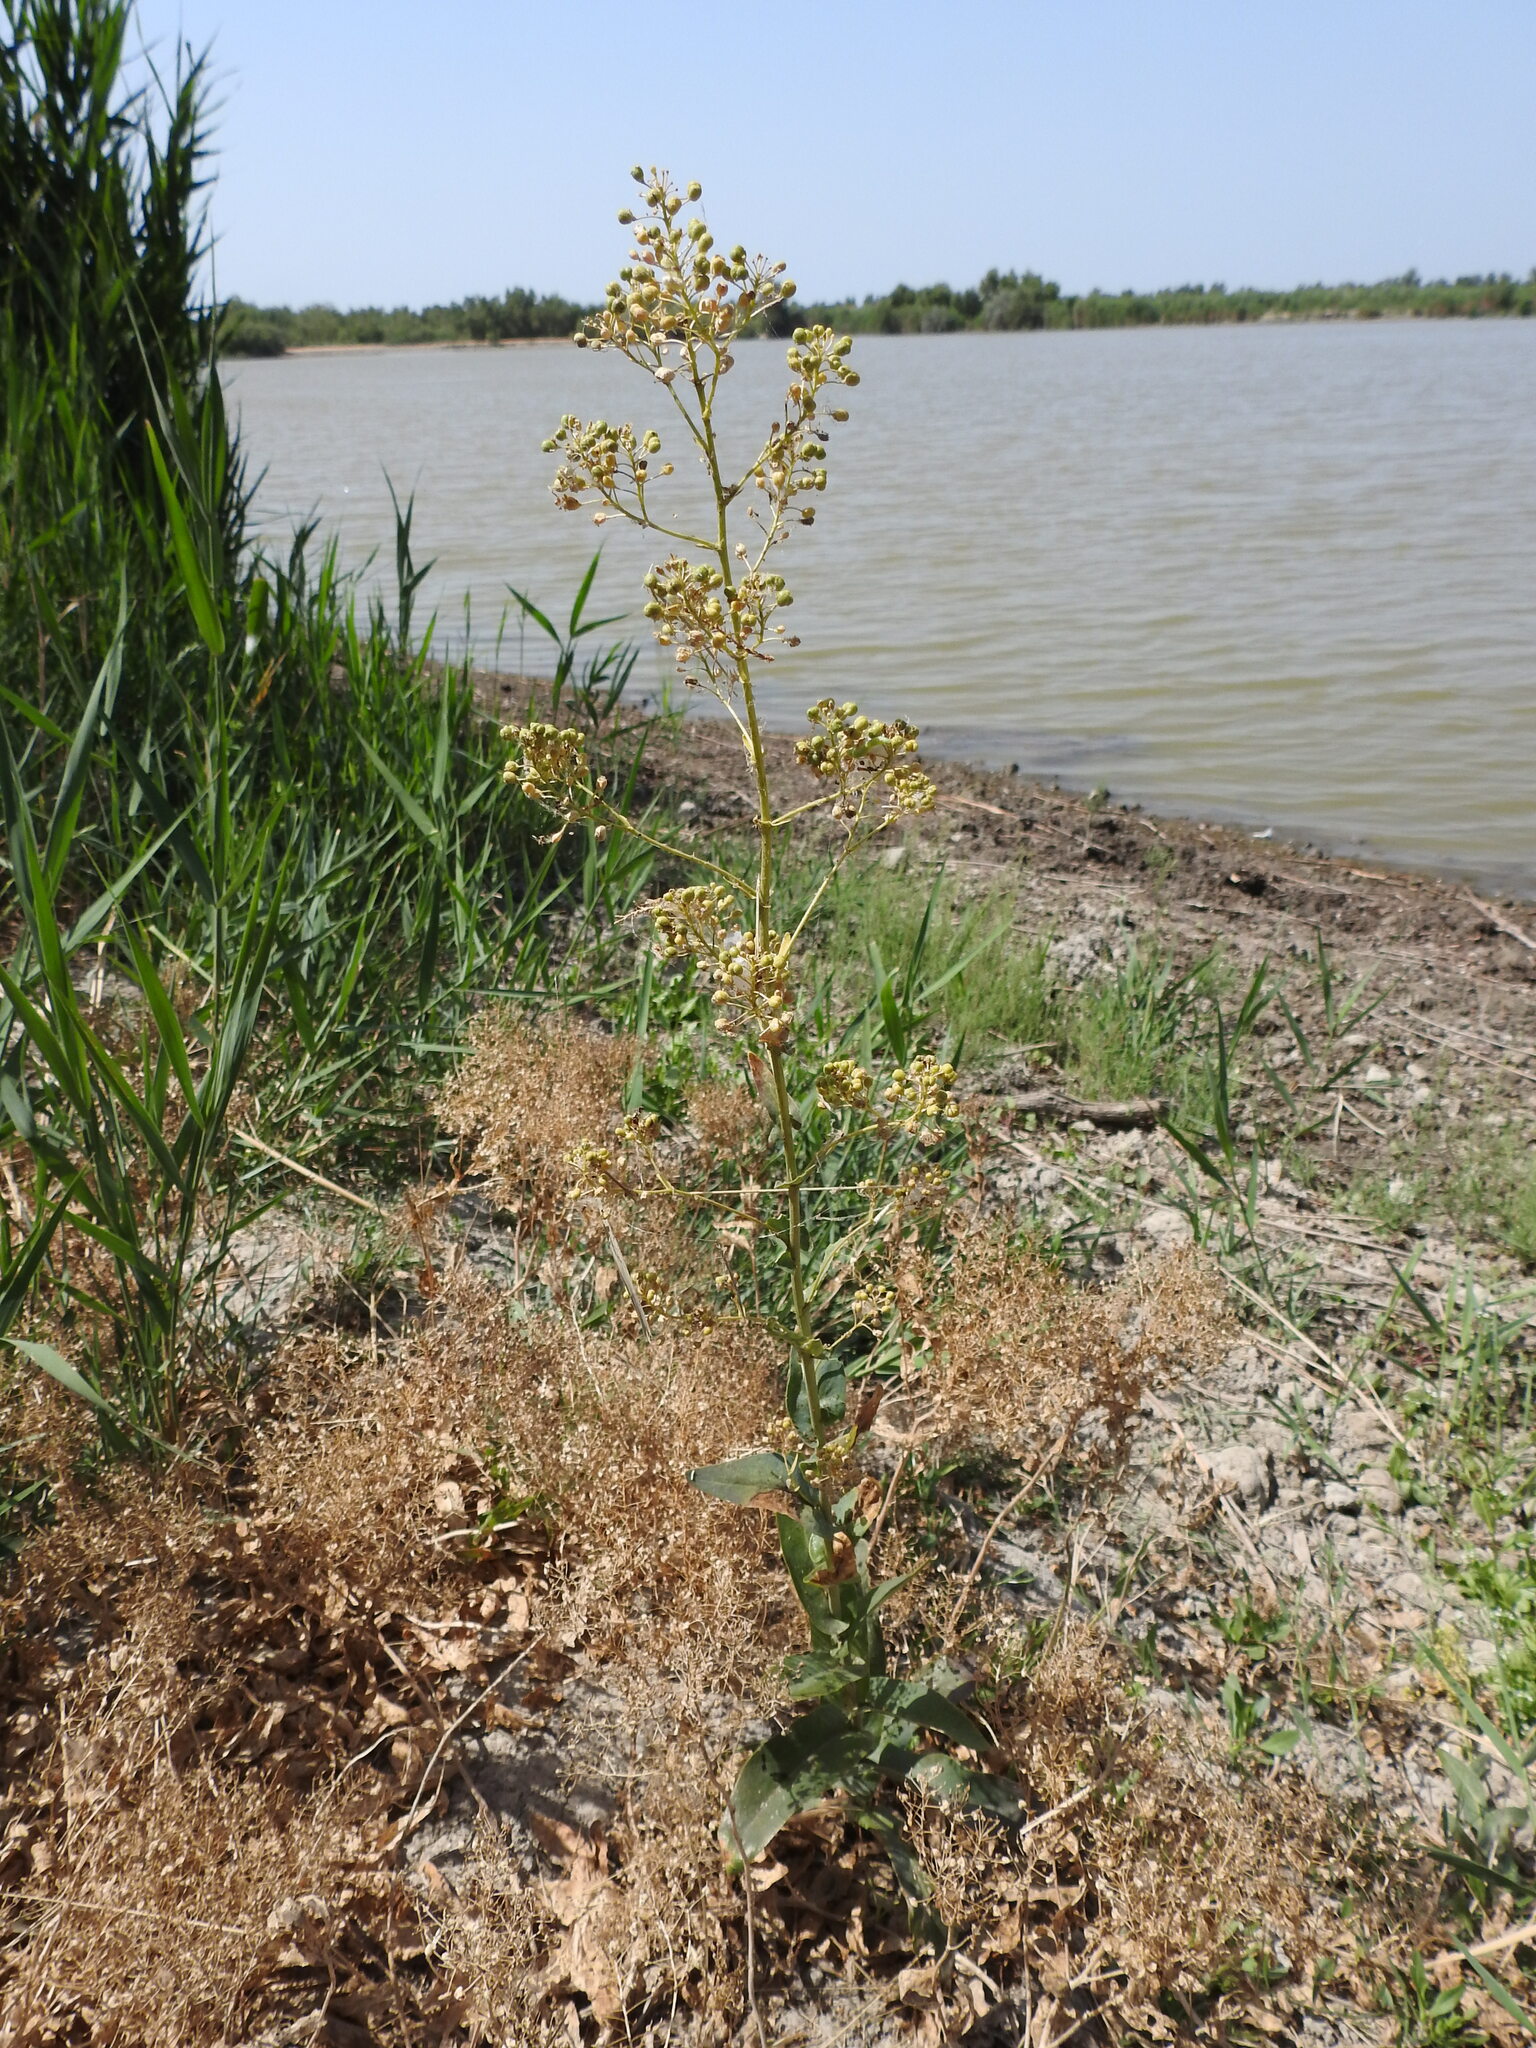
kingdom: Plantae
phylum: Tracheophyta
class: Magnoliopsida
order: Brassicales
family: Brassicaceae
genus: Lepidium
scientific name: Lepidium latifolium
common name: Dittander
